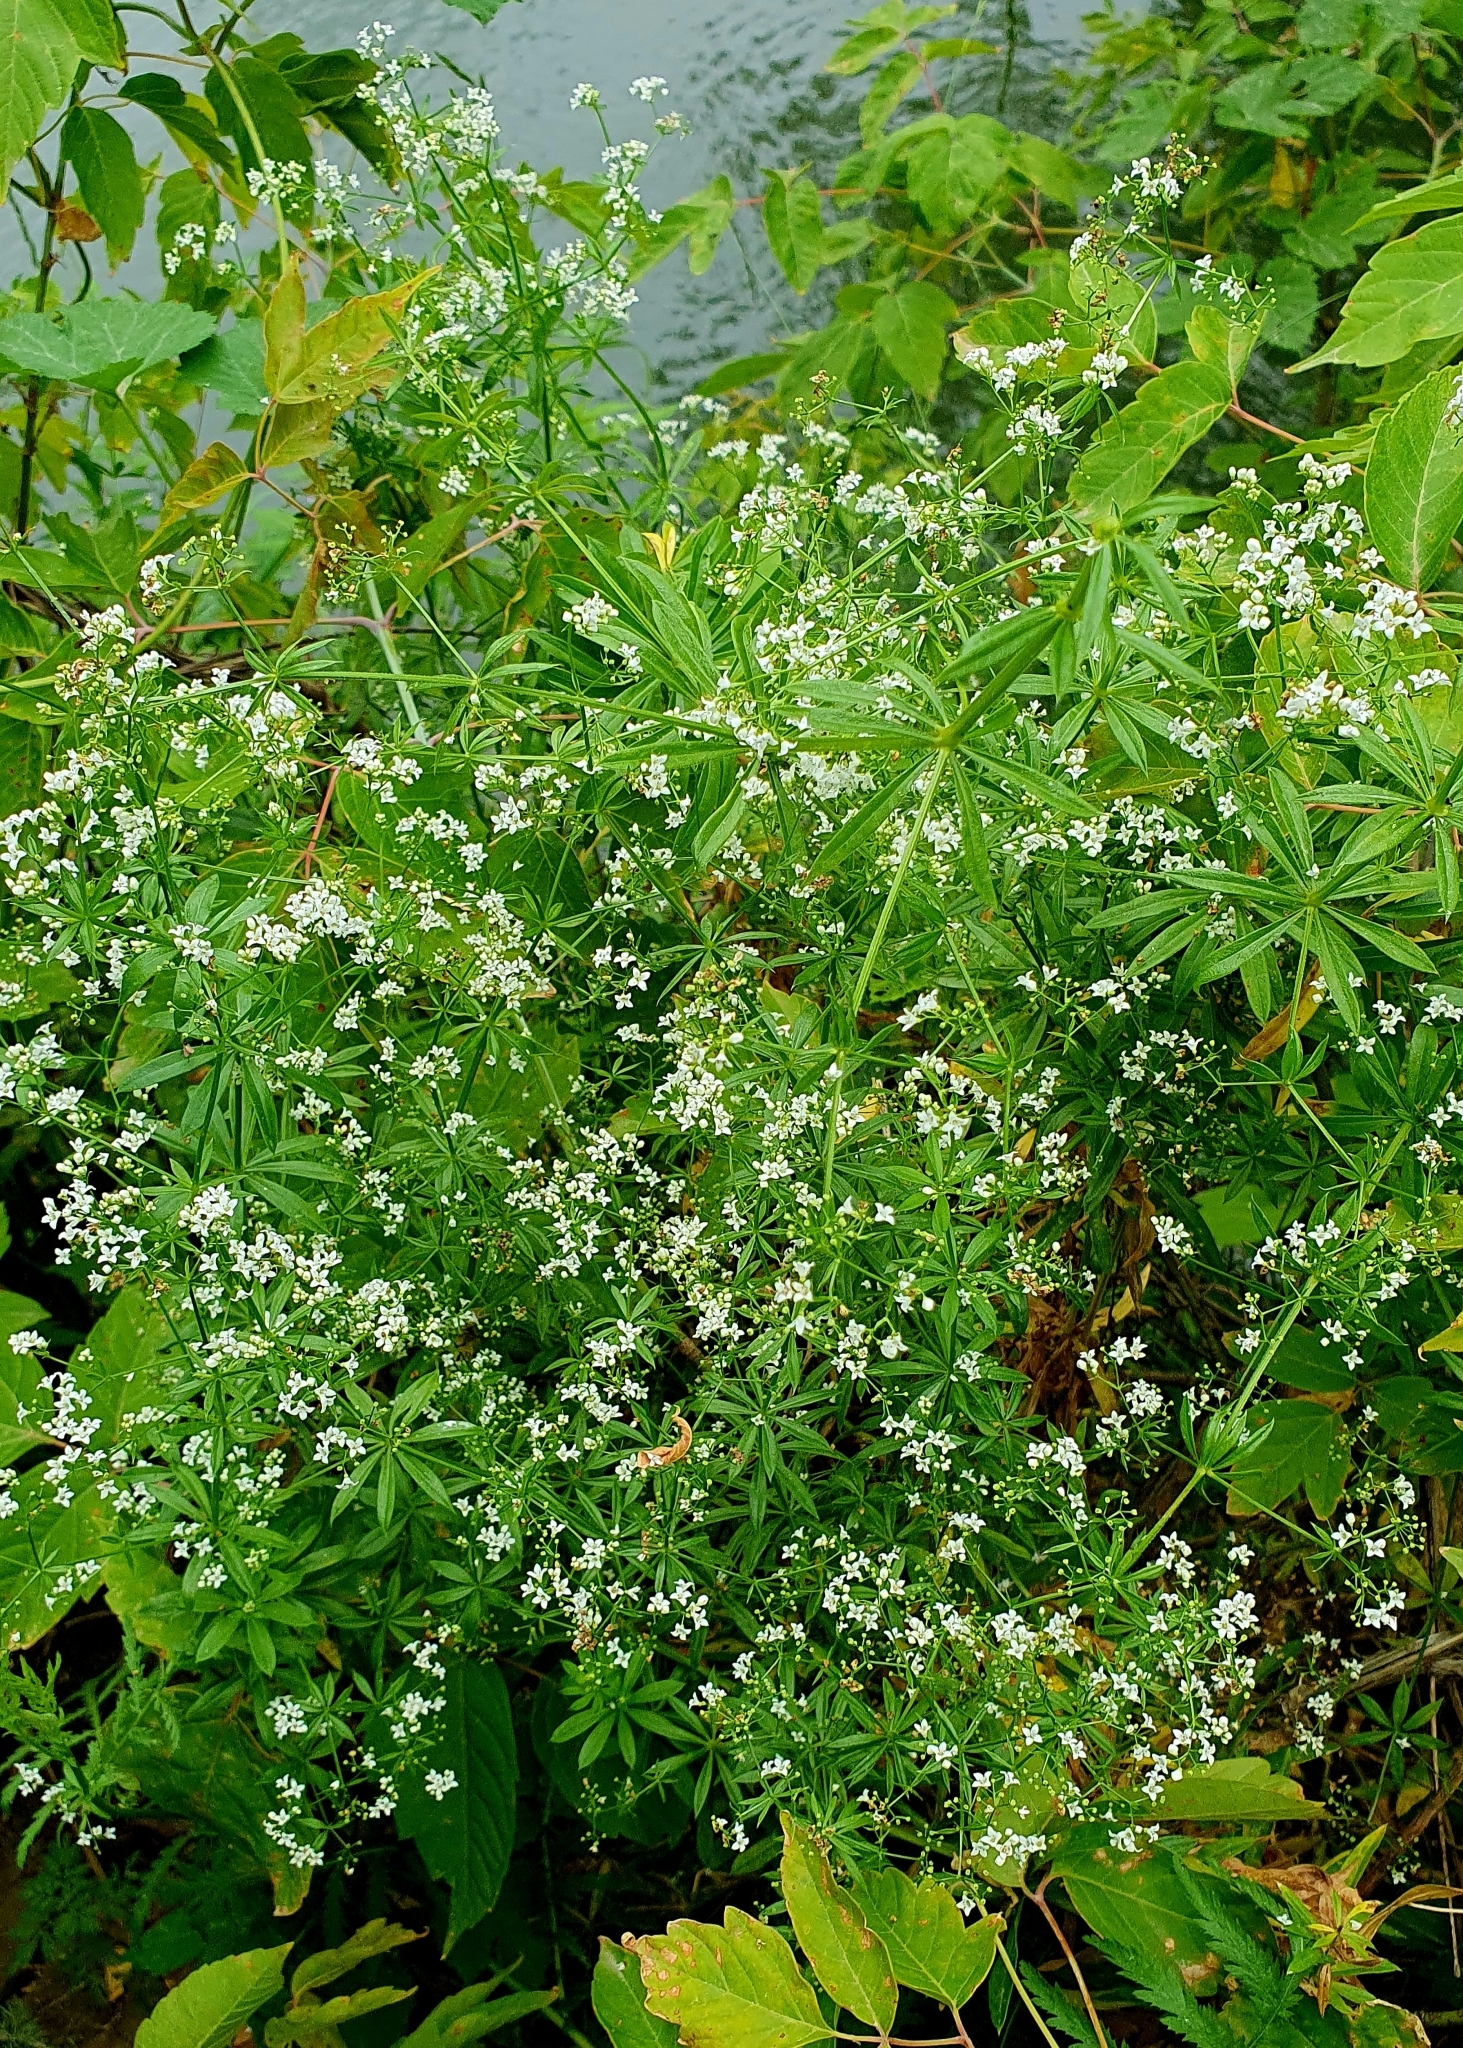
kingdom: Plantae
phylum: Tracheophyta
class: Magnoliopsida
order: Gentianales
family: Rubiaceae
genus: Galium
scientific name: Galium rivale
